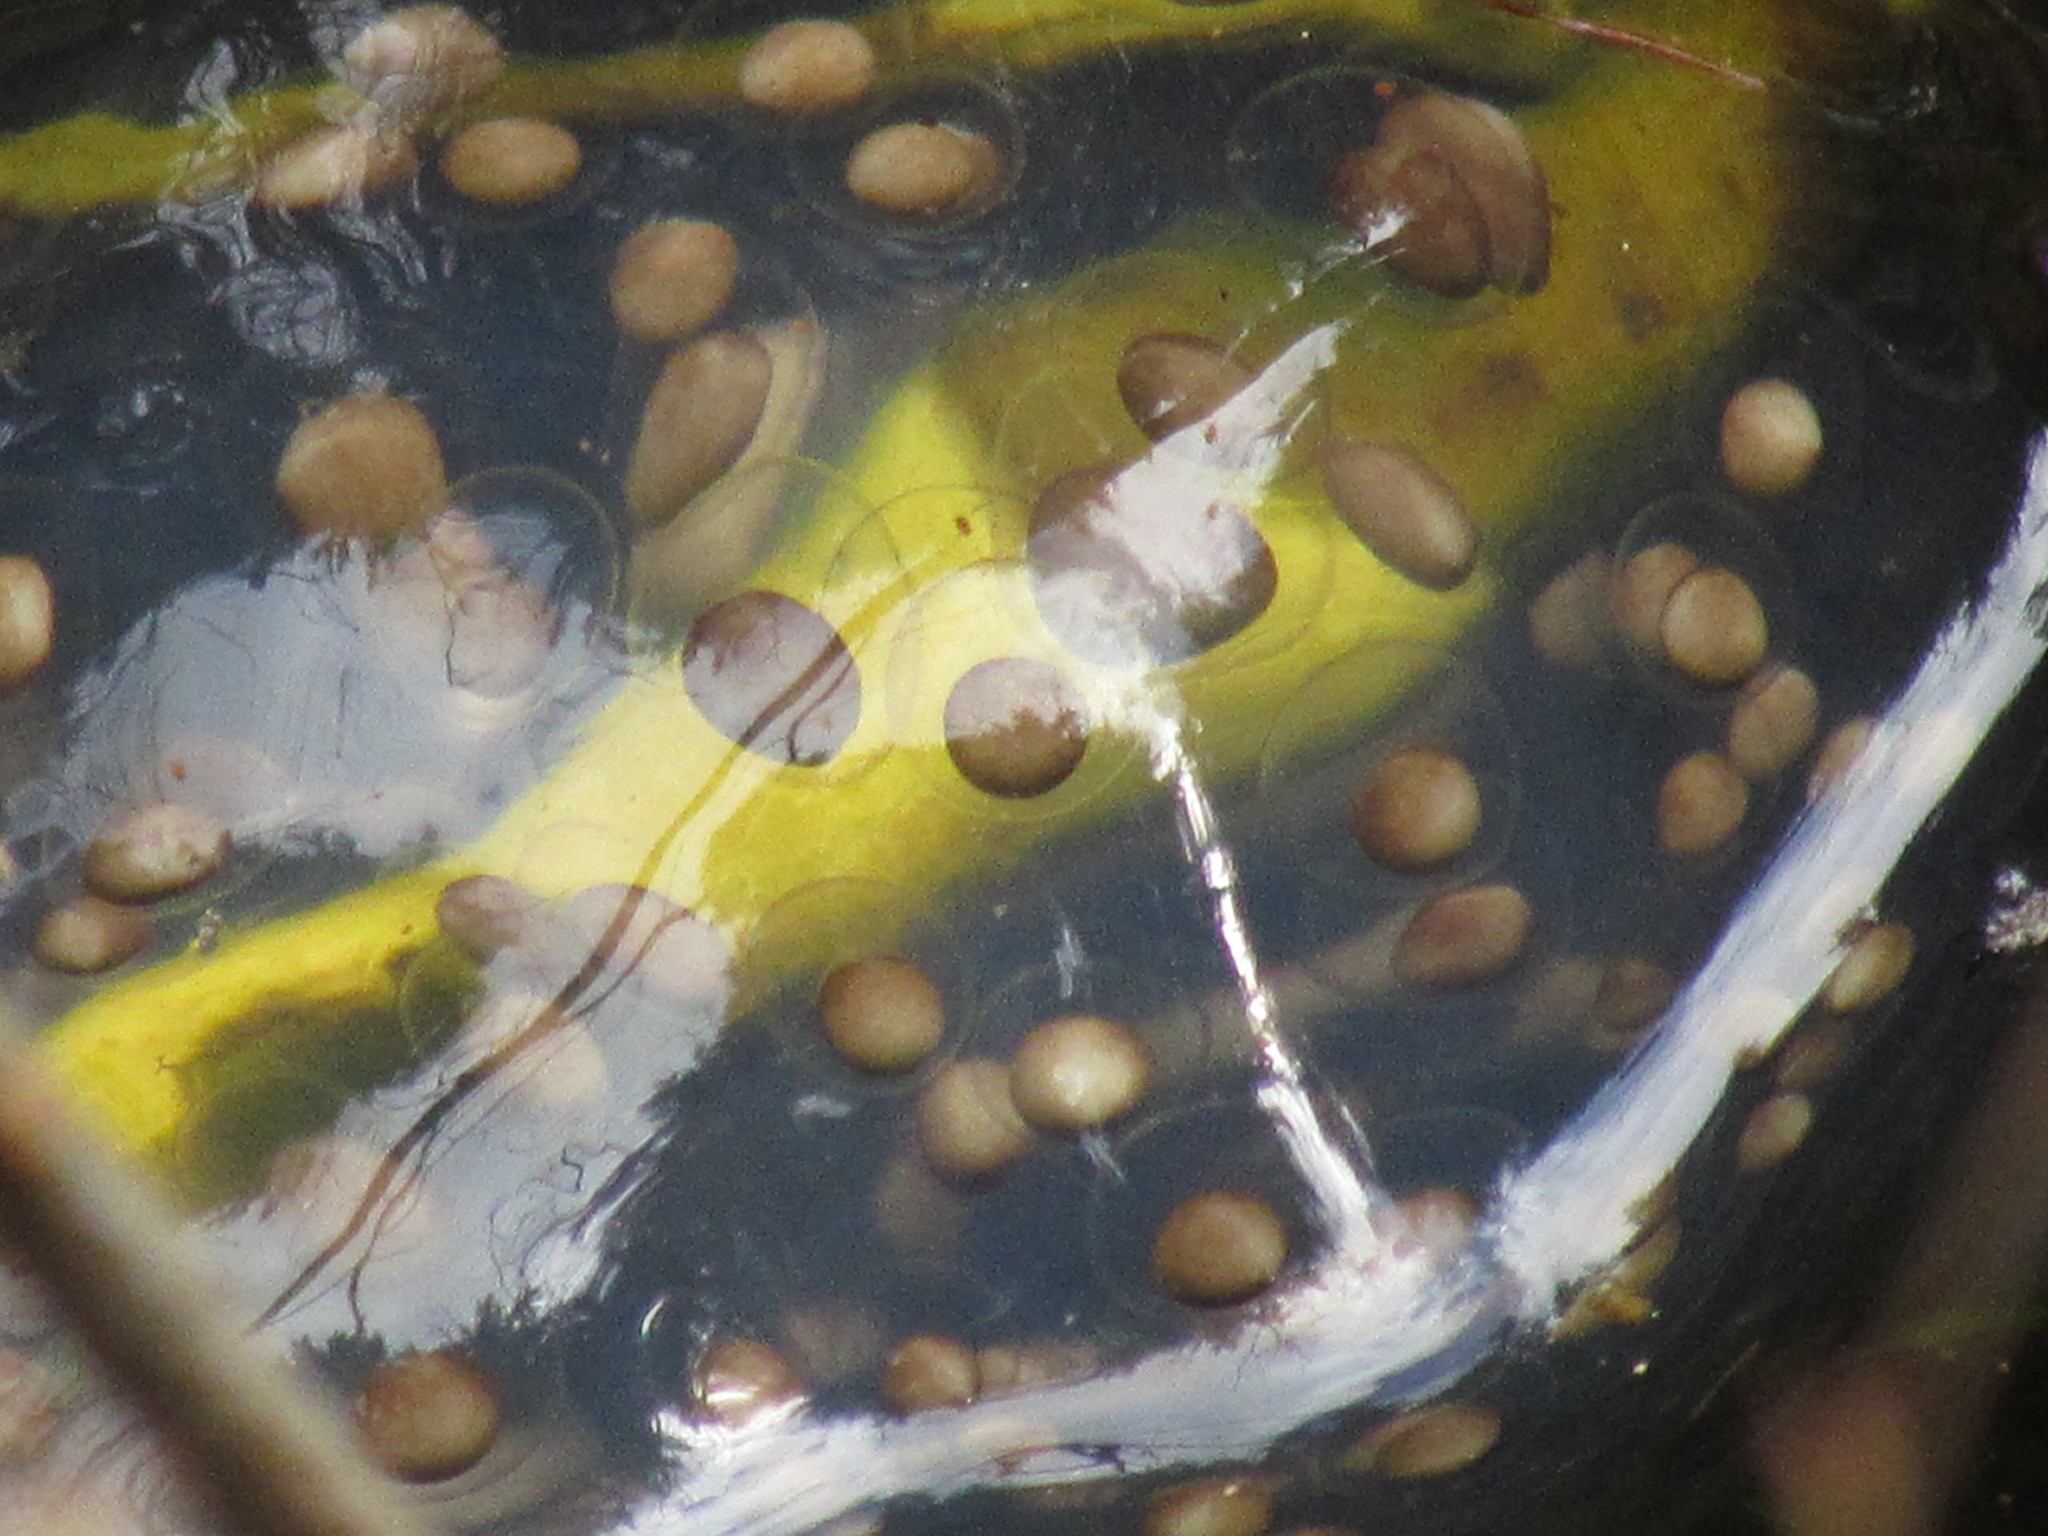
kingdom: Animalia
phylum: Chordata
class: Amphibia
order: Caudata
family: Ambystomatidae
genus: Ambystoma
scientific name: Ambystoma gracile
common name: Northwestern salamander
